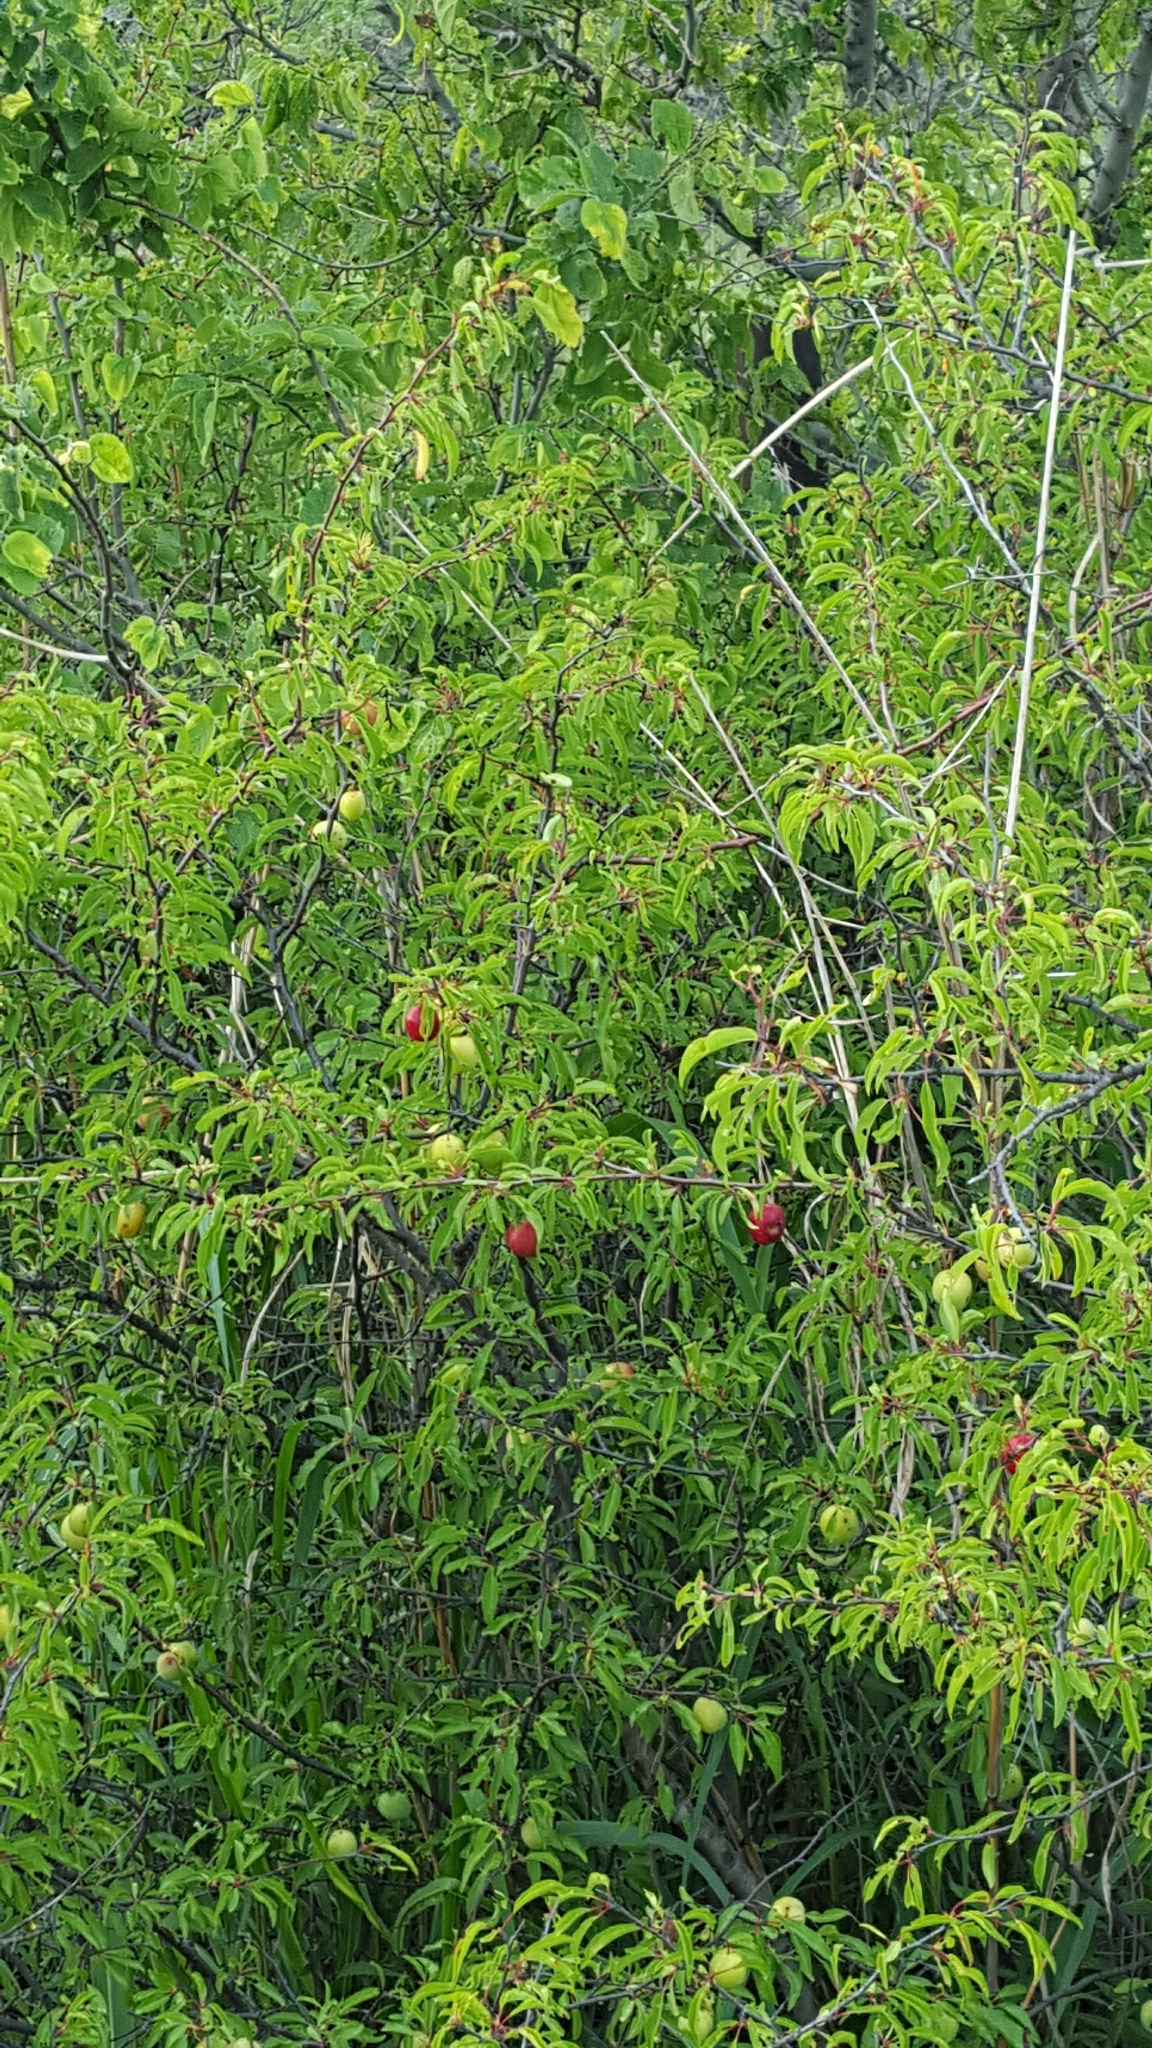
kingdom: Plantae
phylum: Tracheophyta
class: Magnoliopsida
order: Rosales
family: Rosaceae
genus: Prunus
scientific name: Prunus angustifolia
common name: Cherokee plum
